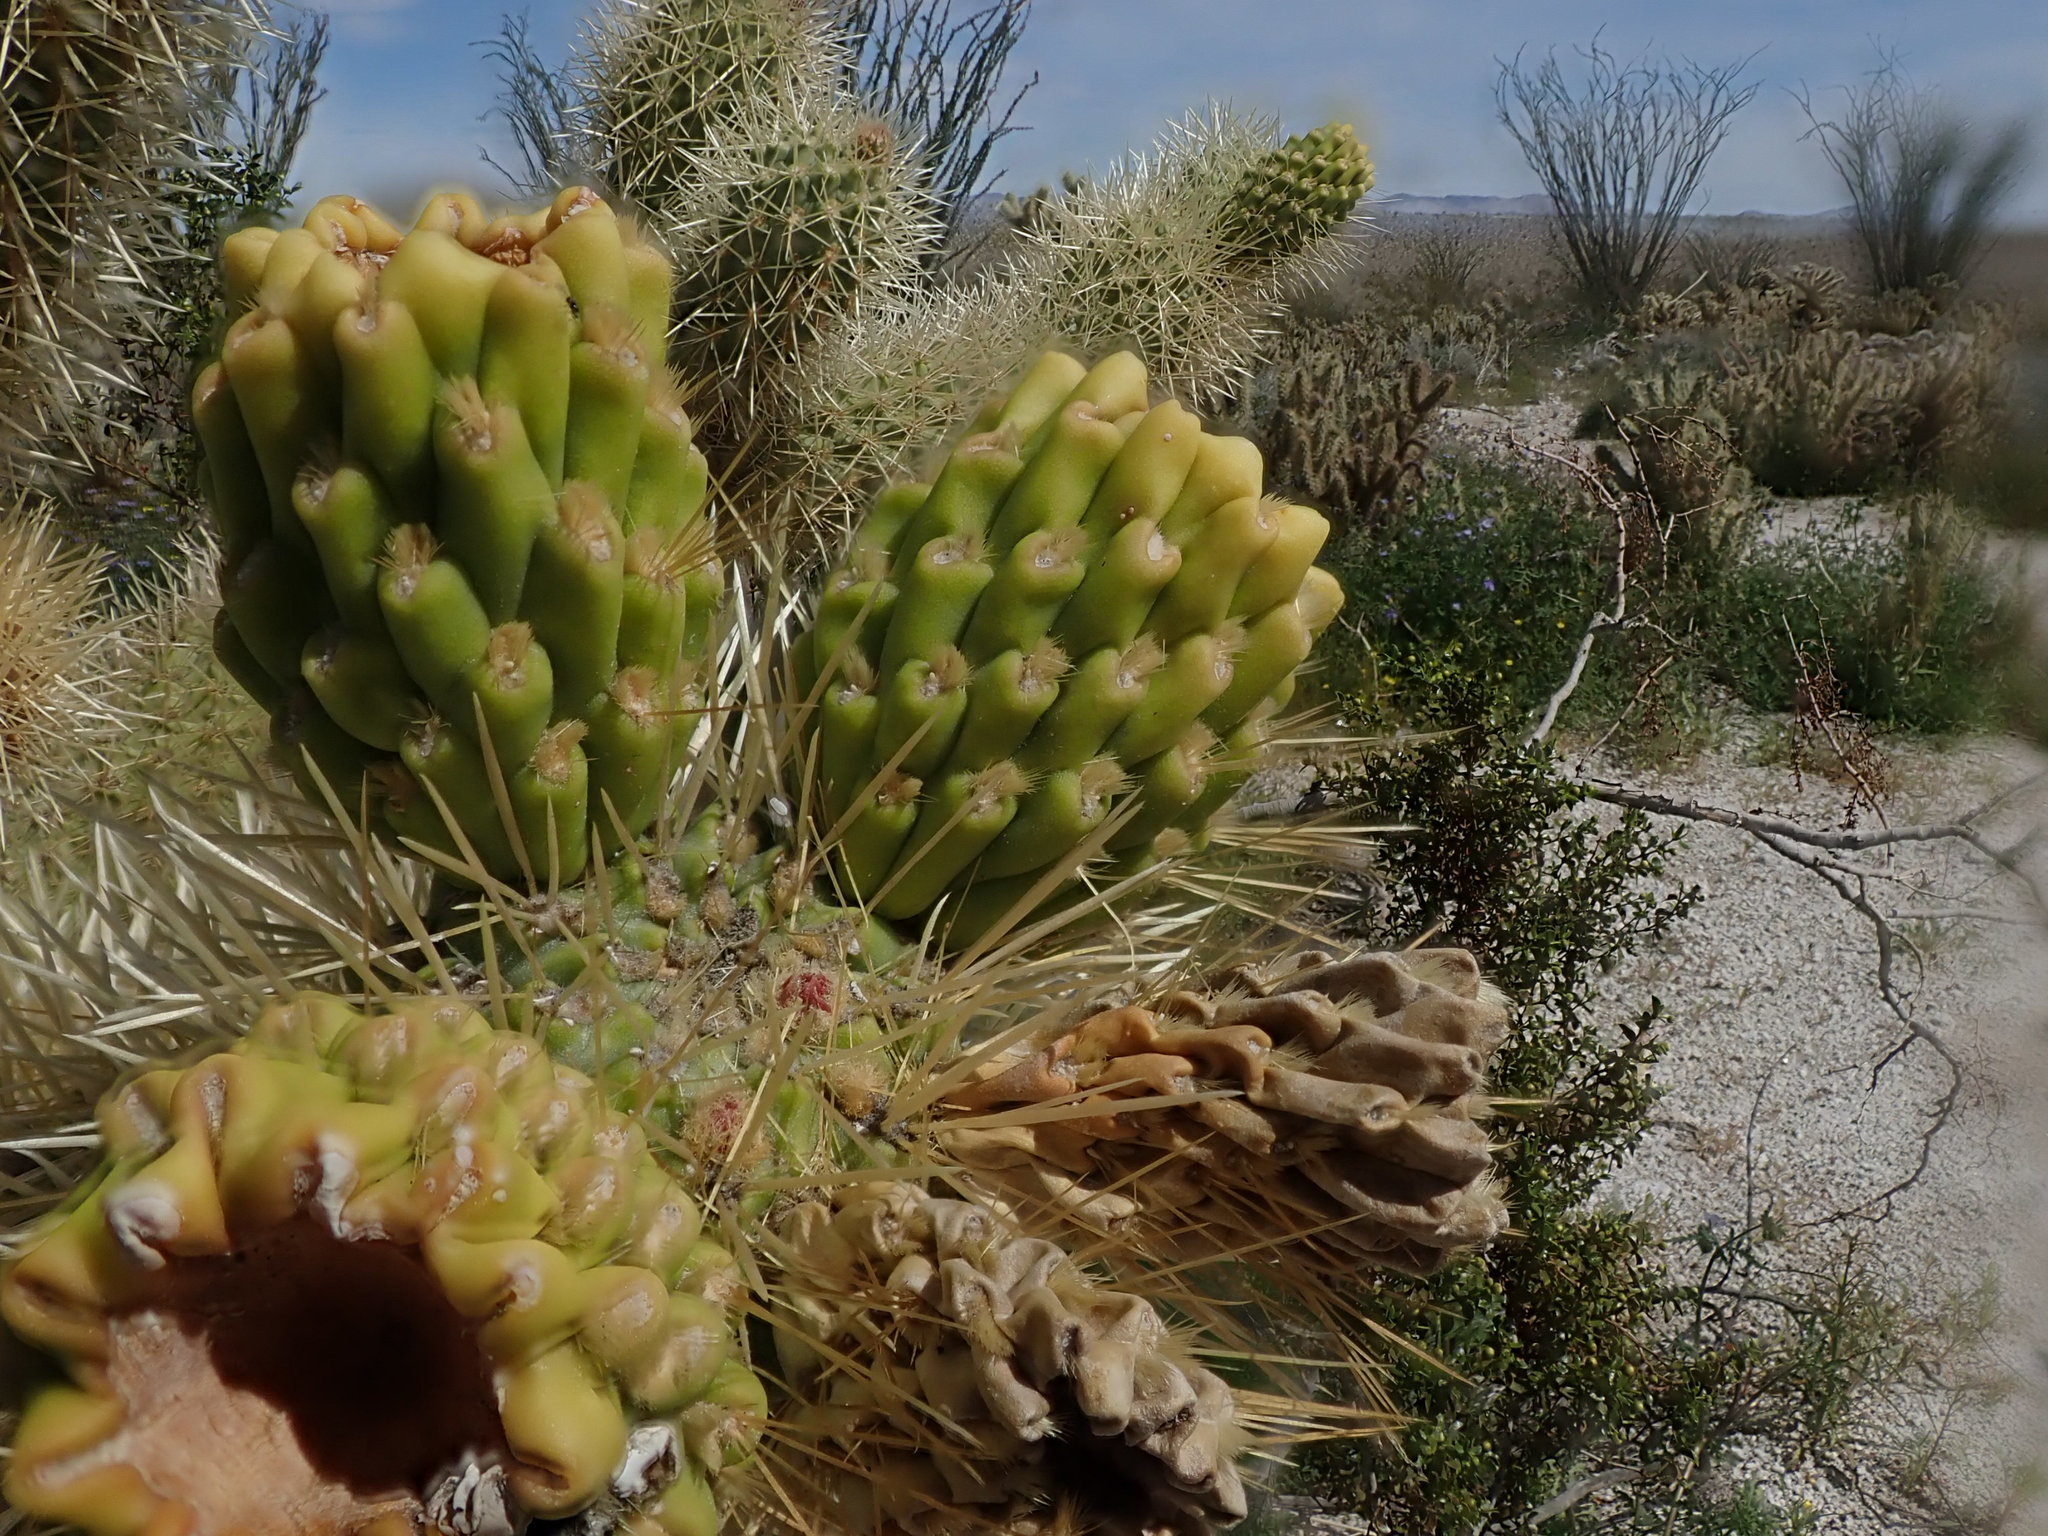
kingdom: Plantae
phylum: Tracheophyta
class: Magnoliopsida
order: Caryophyllales
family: Cactaceae
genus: Cylindropuntia
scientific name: Cylindropuntia fosbergii
